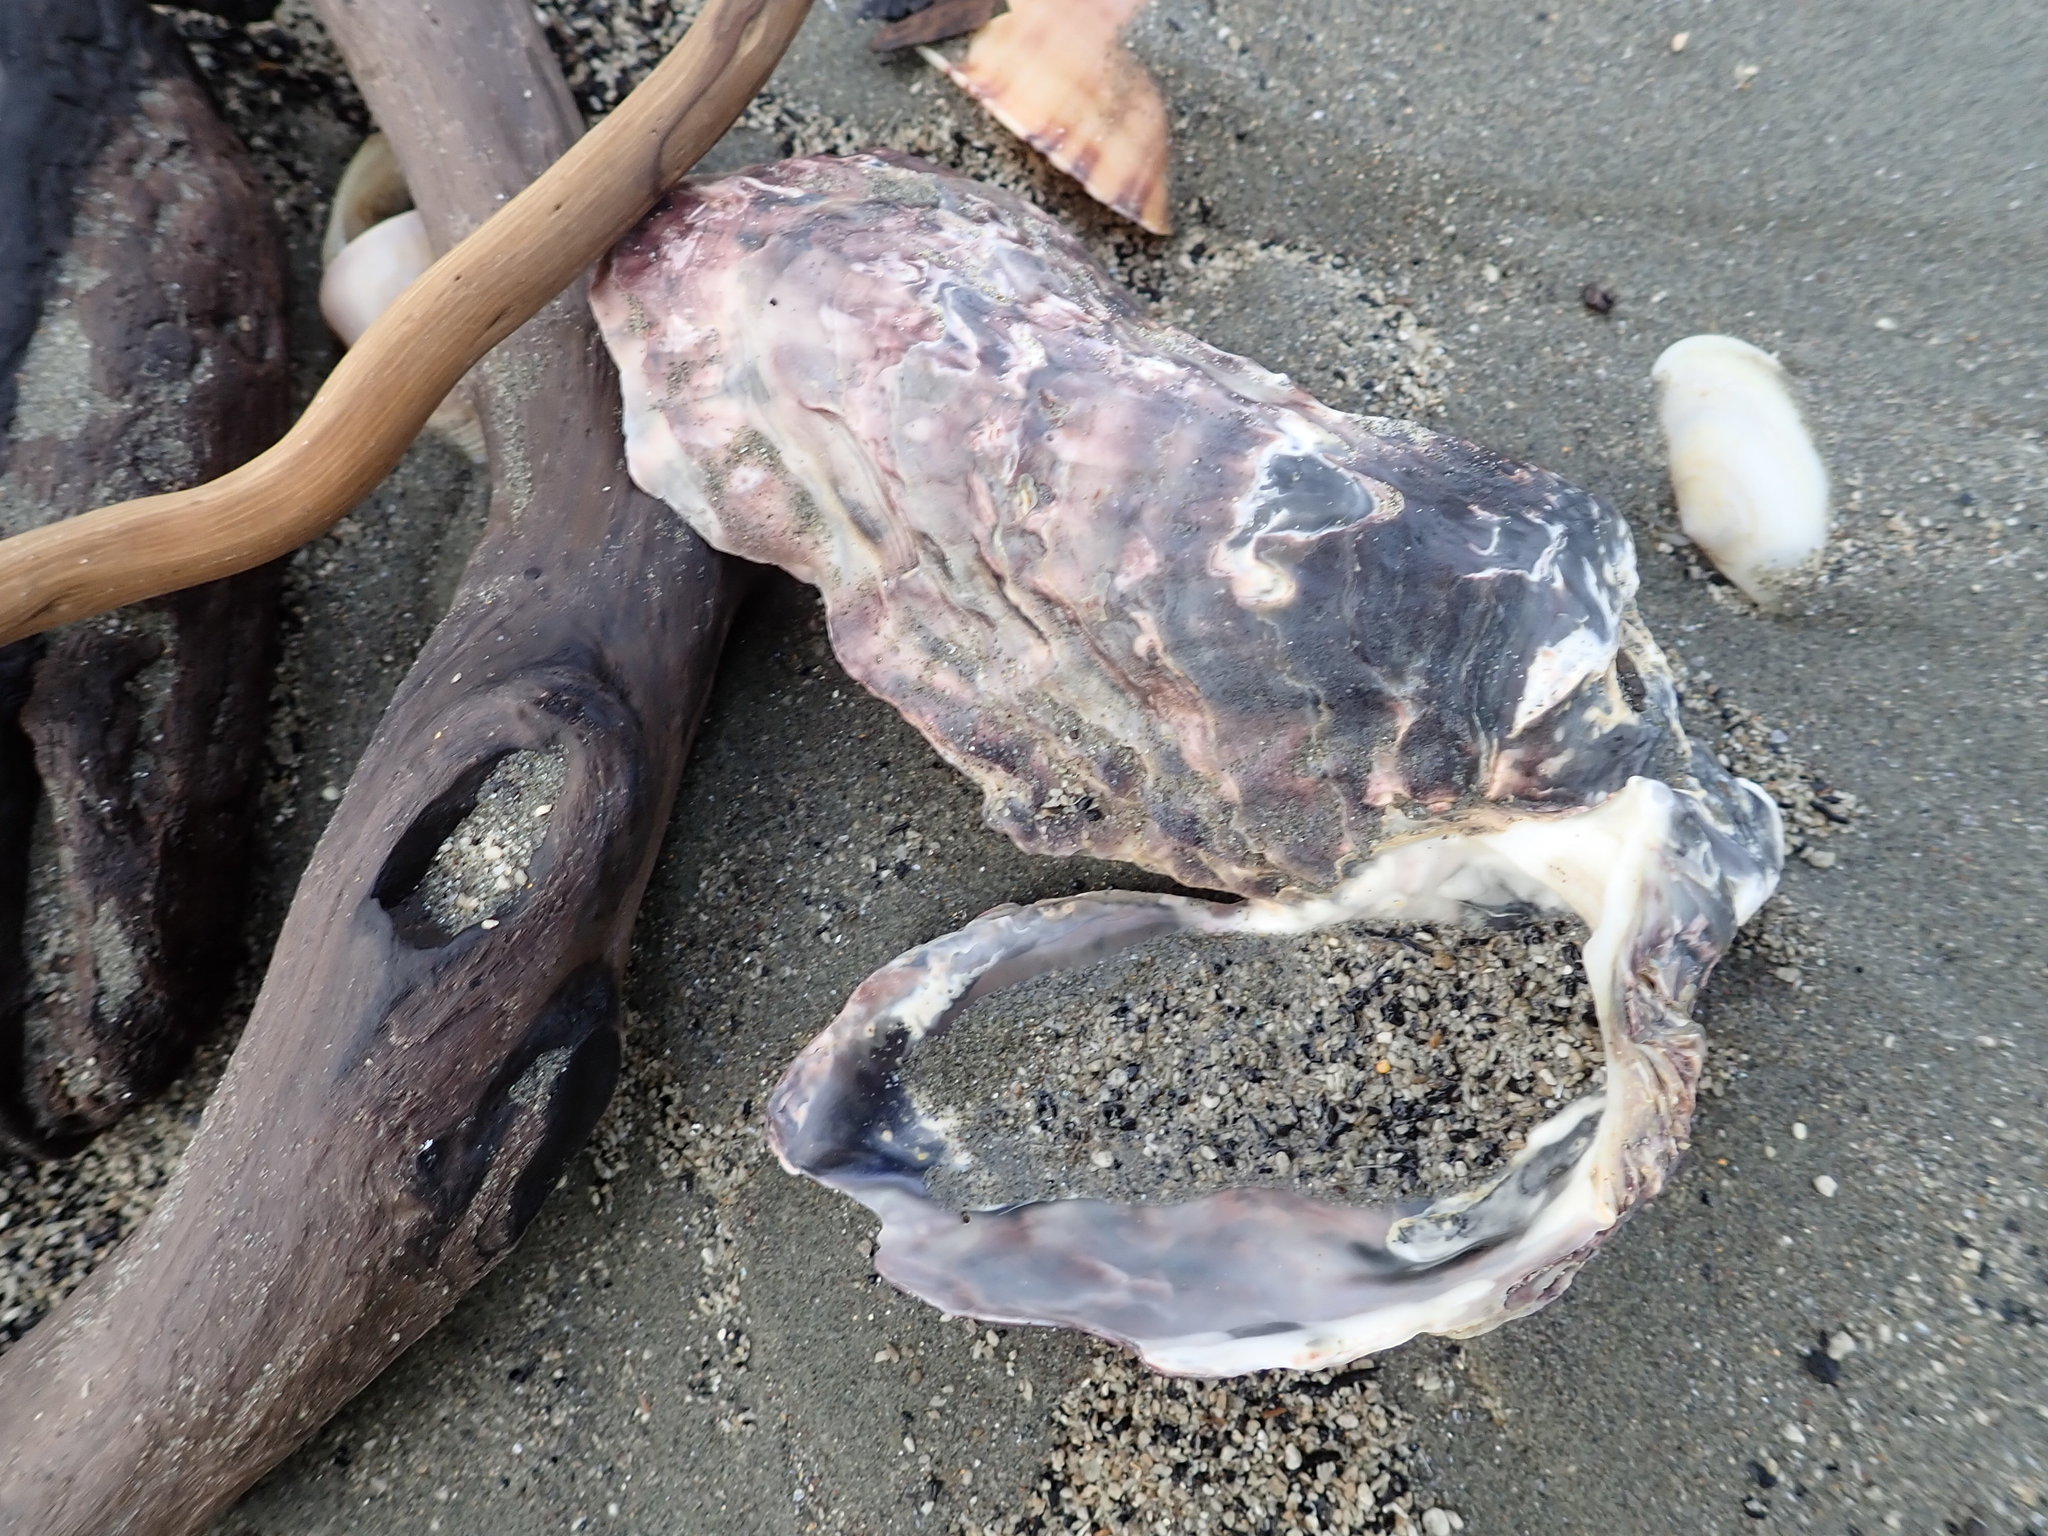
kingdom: Animalia
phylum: Mollusca
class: Bivalvia
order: Ostreida
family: Ostreidae
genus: Magallana
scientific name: Magallana gigas
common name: Pacific oyster
